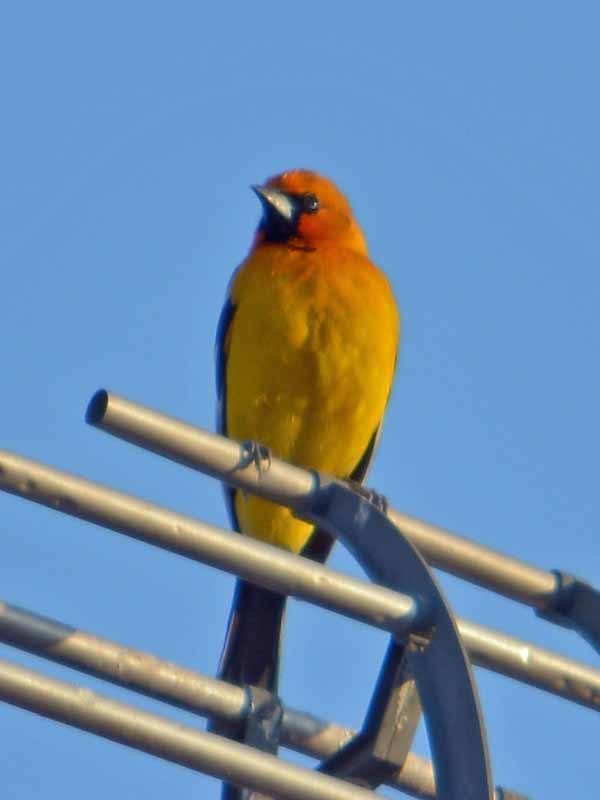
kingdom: Animalia
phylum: Chordata
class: Aves
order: Passeriformes
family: Icteridae
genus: Icterus
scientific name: Icterus pustulatus
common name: Streak-backed oriole
